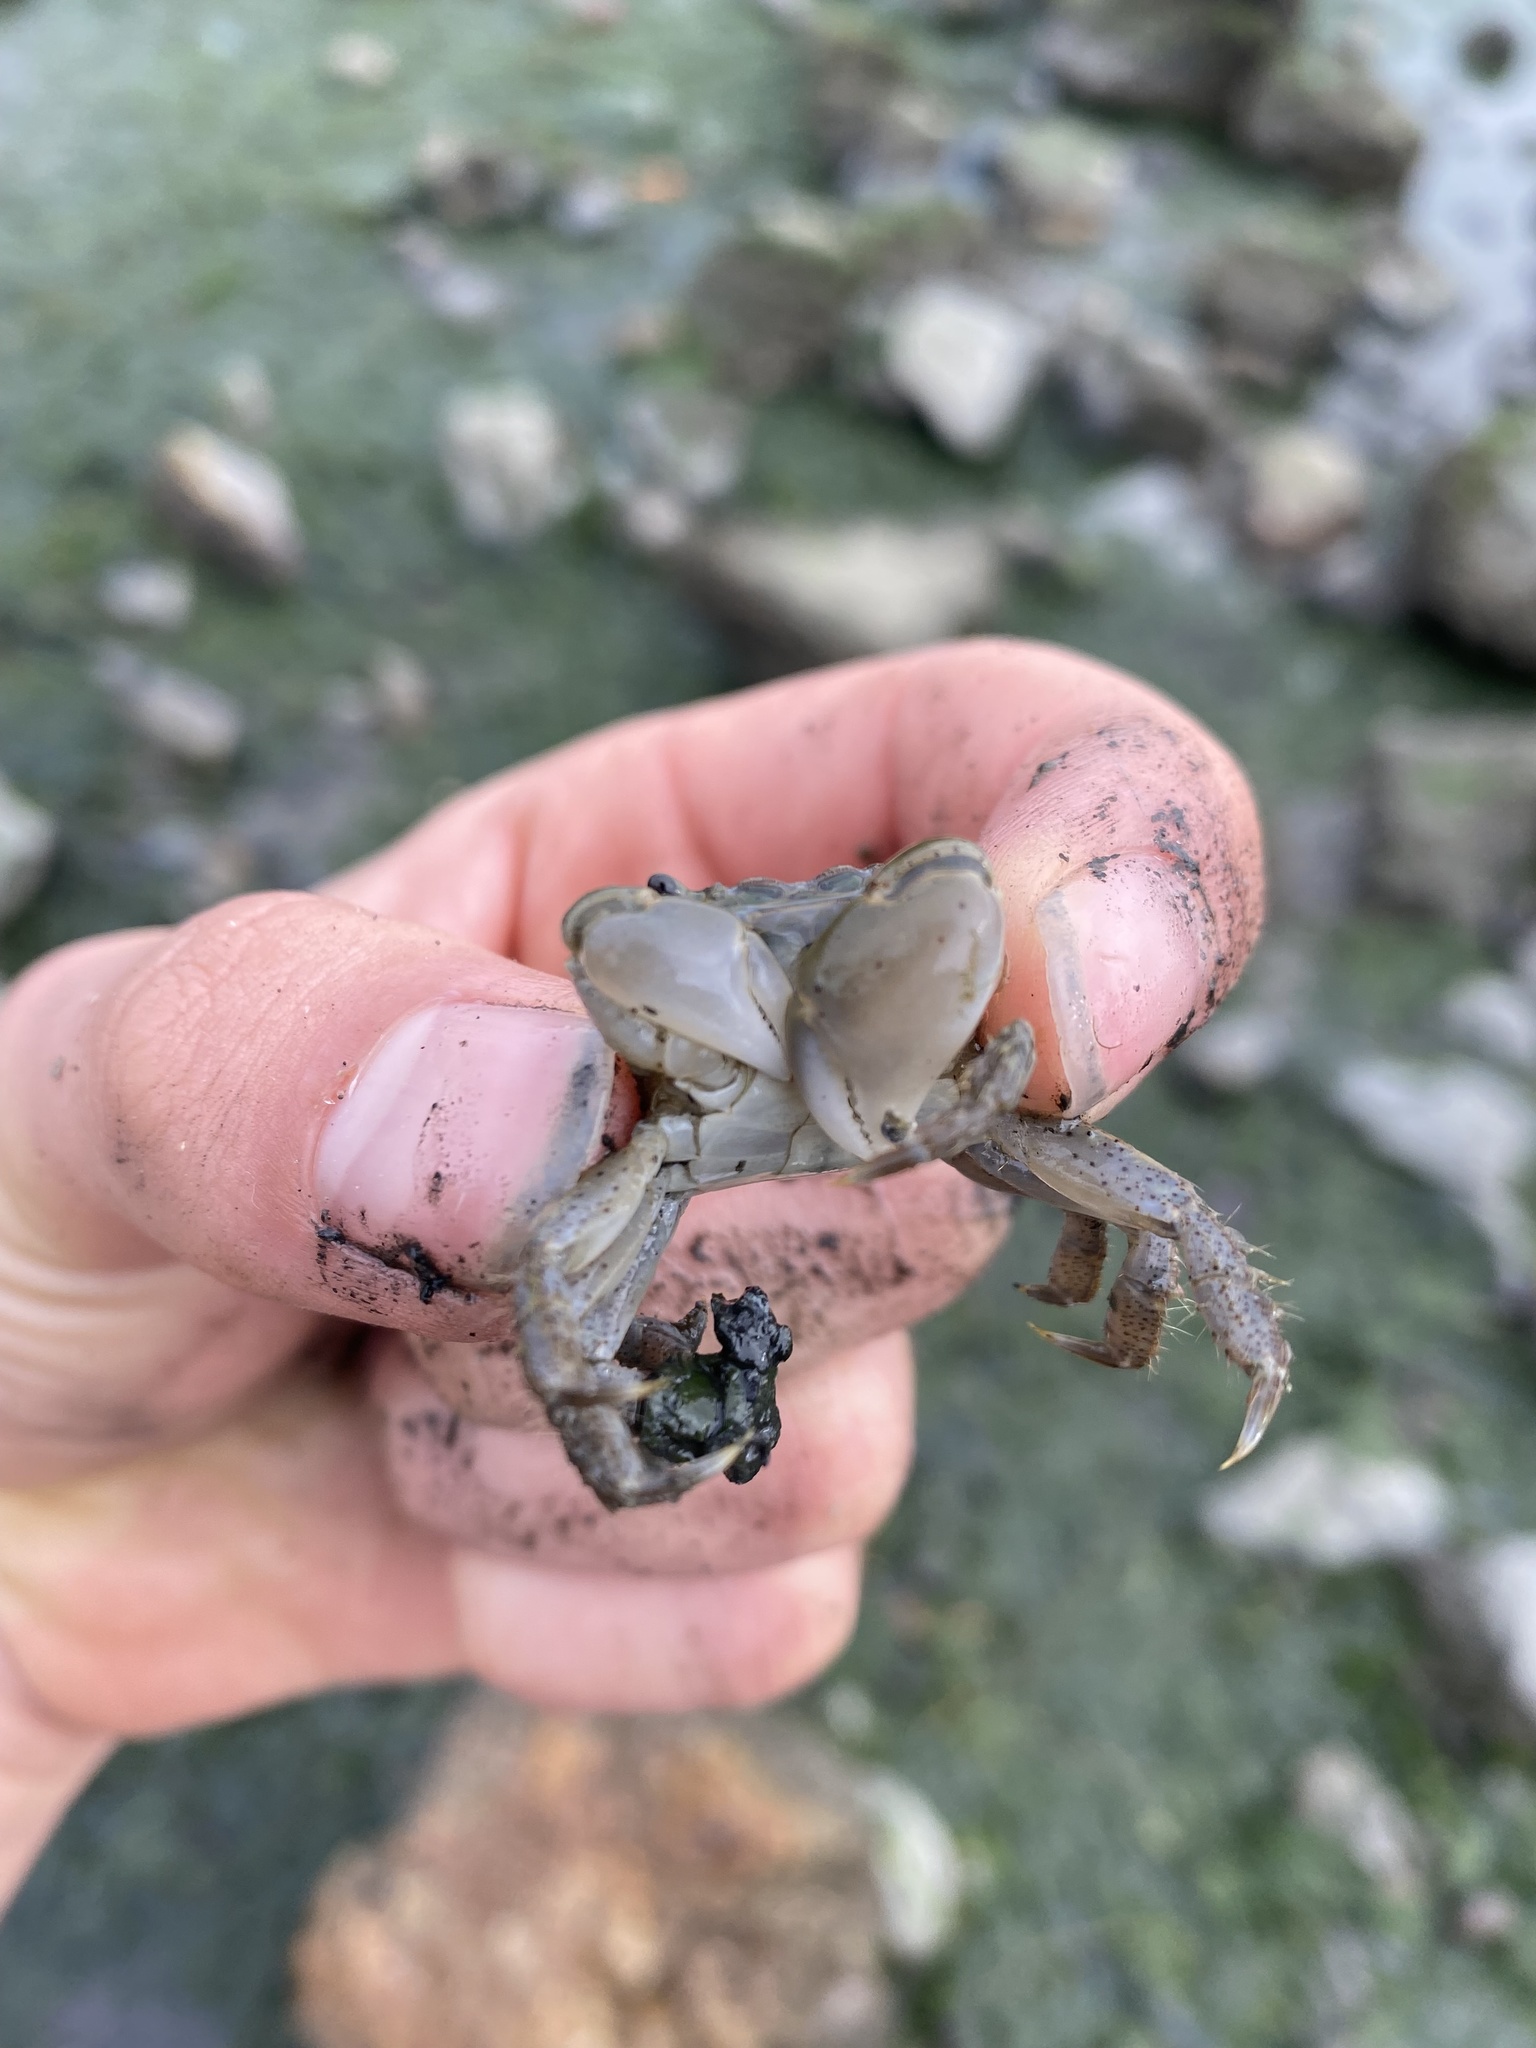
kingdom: Animalia
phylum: Arthropoda
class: Malacostraca
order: Decapoda
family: Varunidae
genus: Hemigrapsus
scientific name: Hemigrapsus oregonensis
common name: Yellow shore crab
